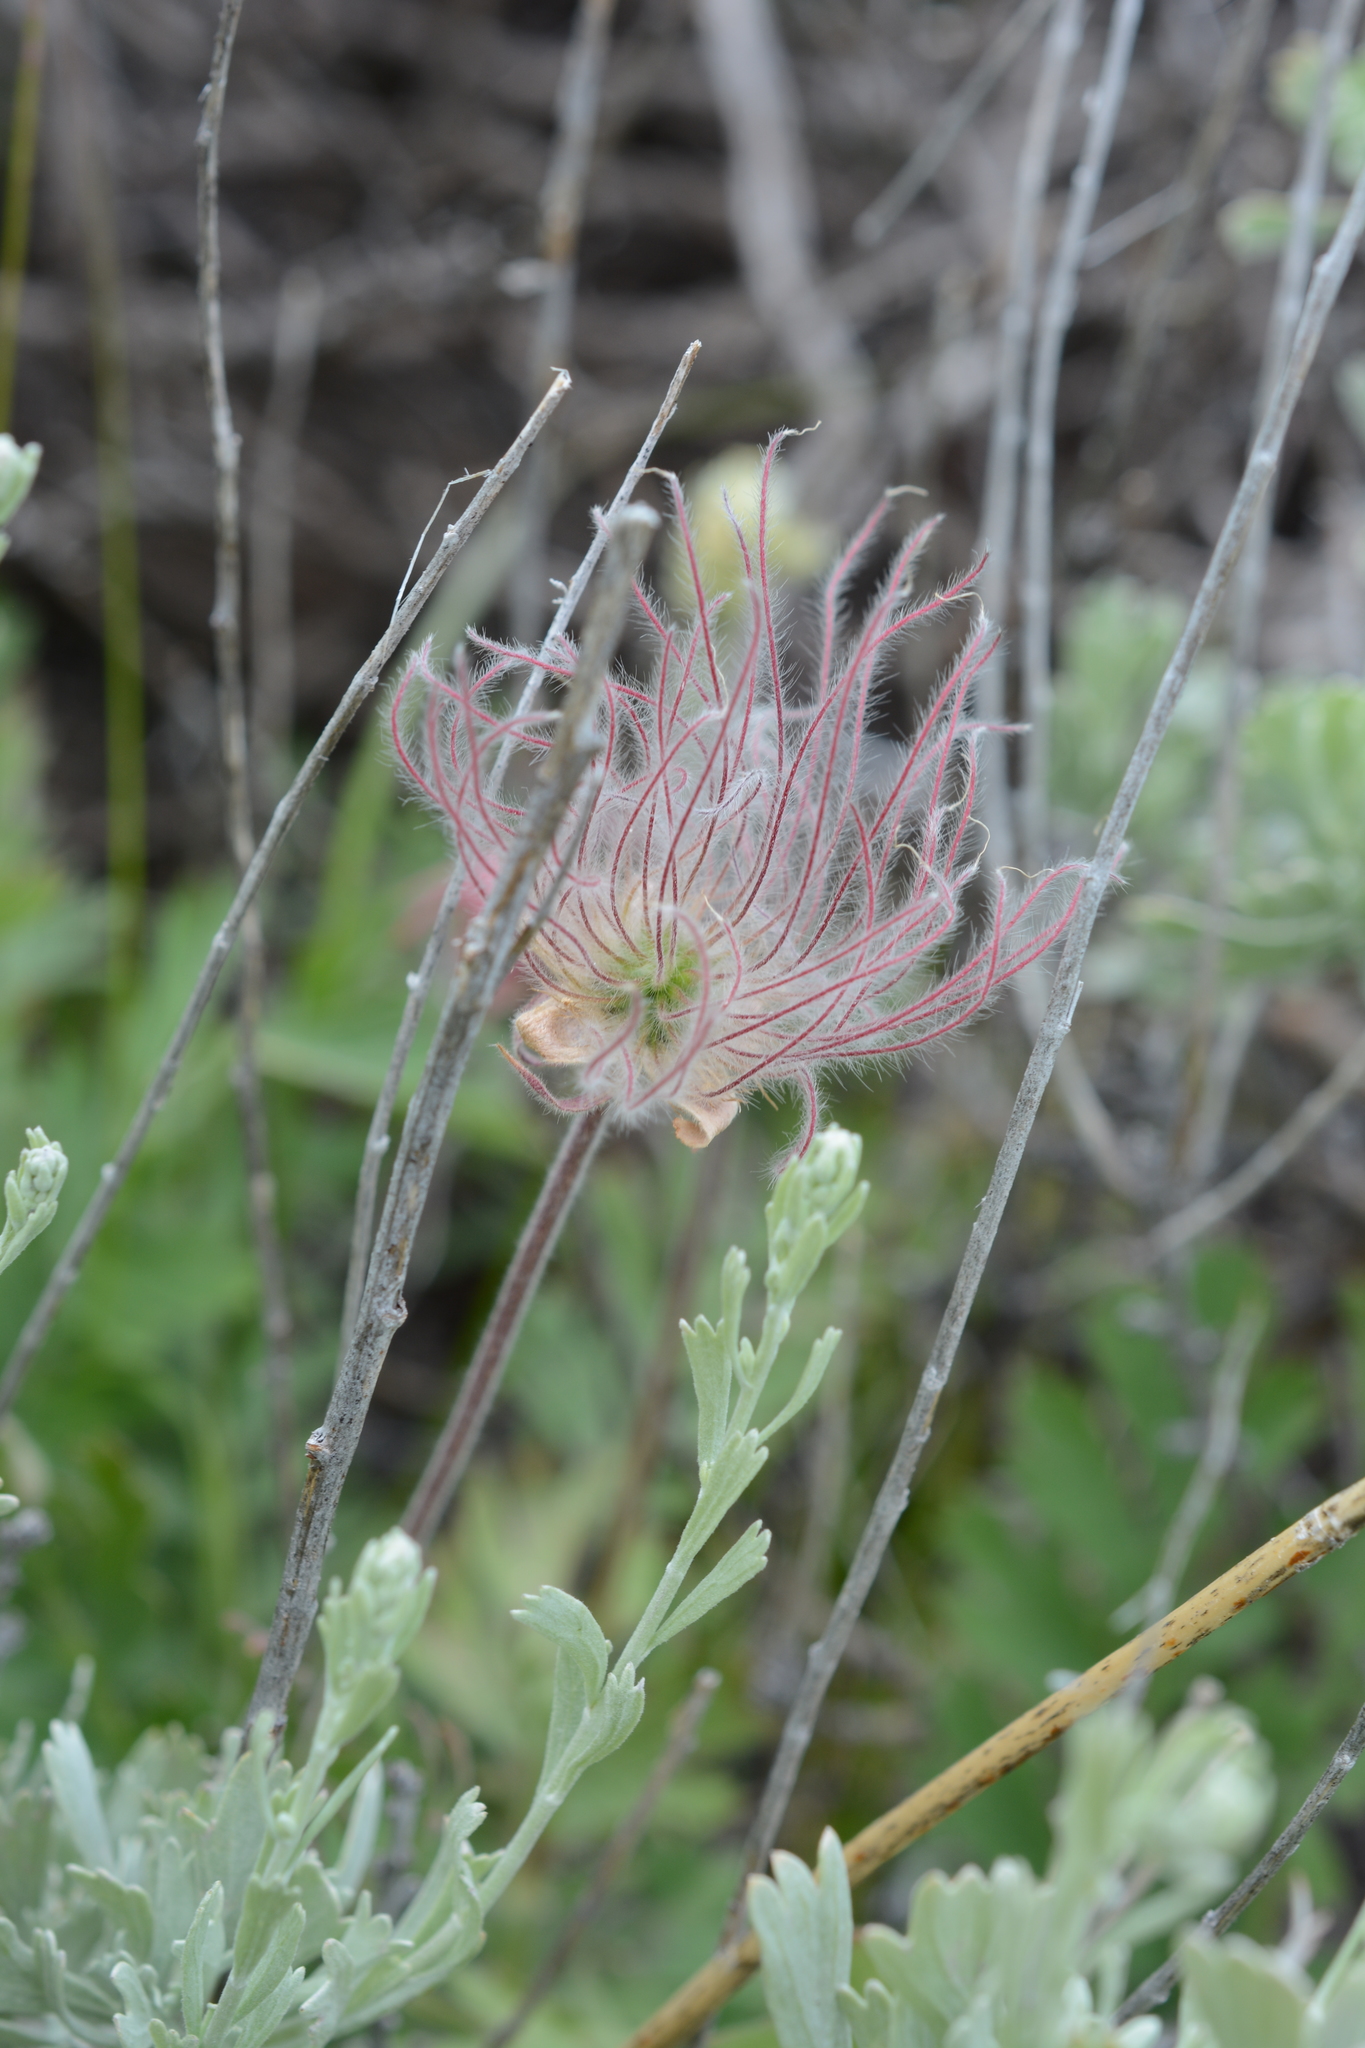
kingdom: Plantae
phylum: Tracheophyta
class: Magnoliopsida
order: Rosales
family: Rosaceae
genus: Geum
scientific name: Geum triflorum
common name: Old man's whiskers
